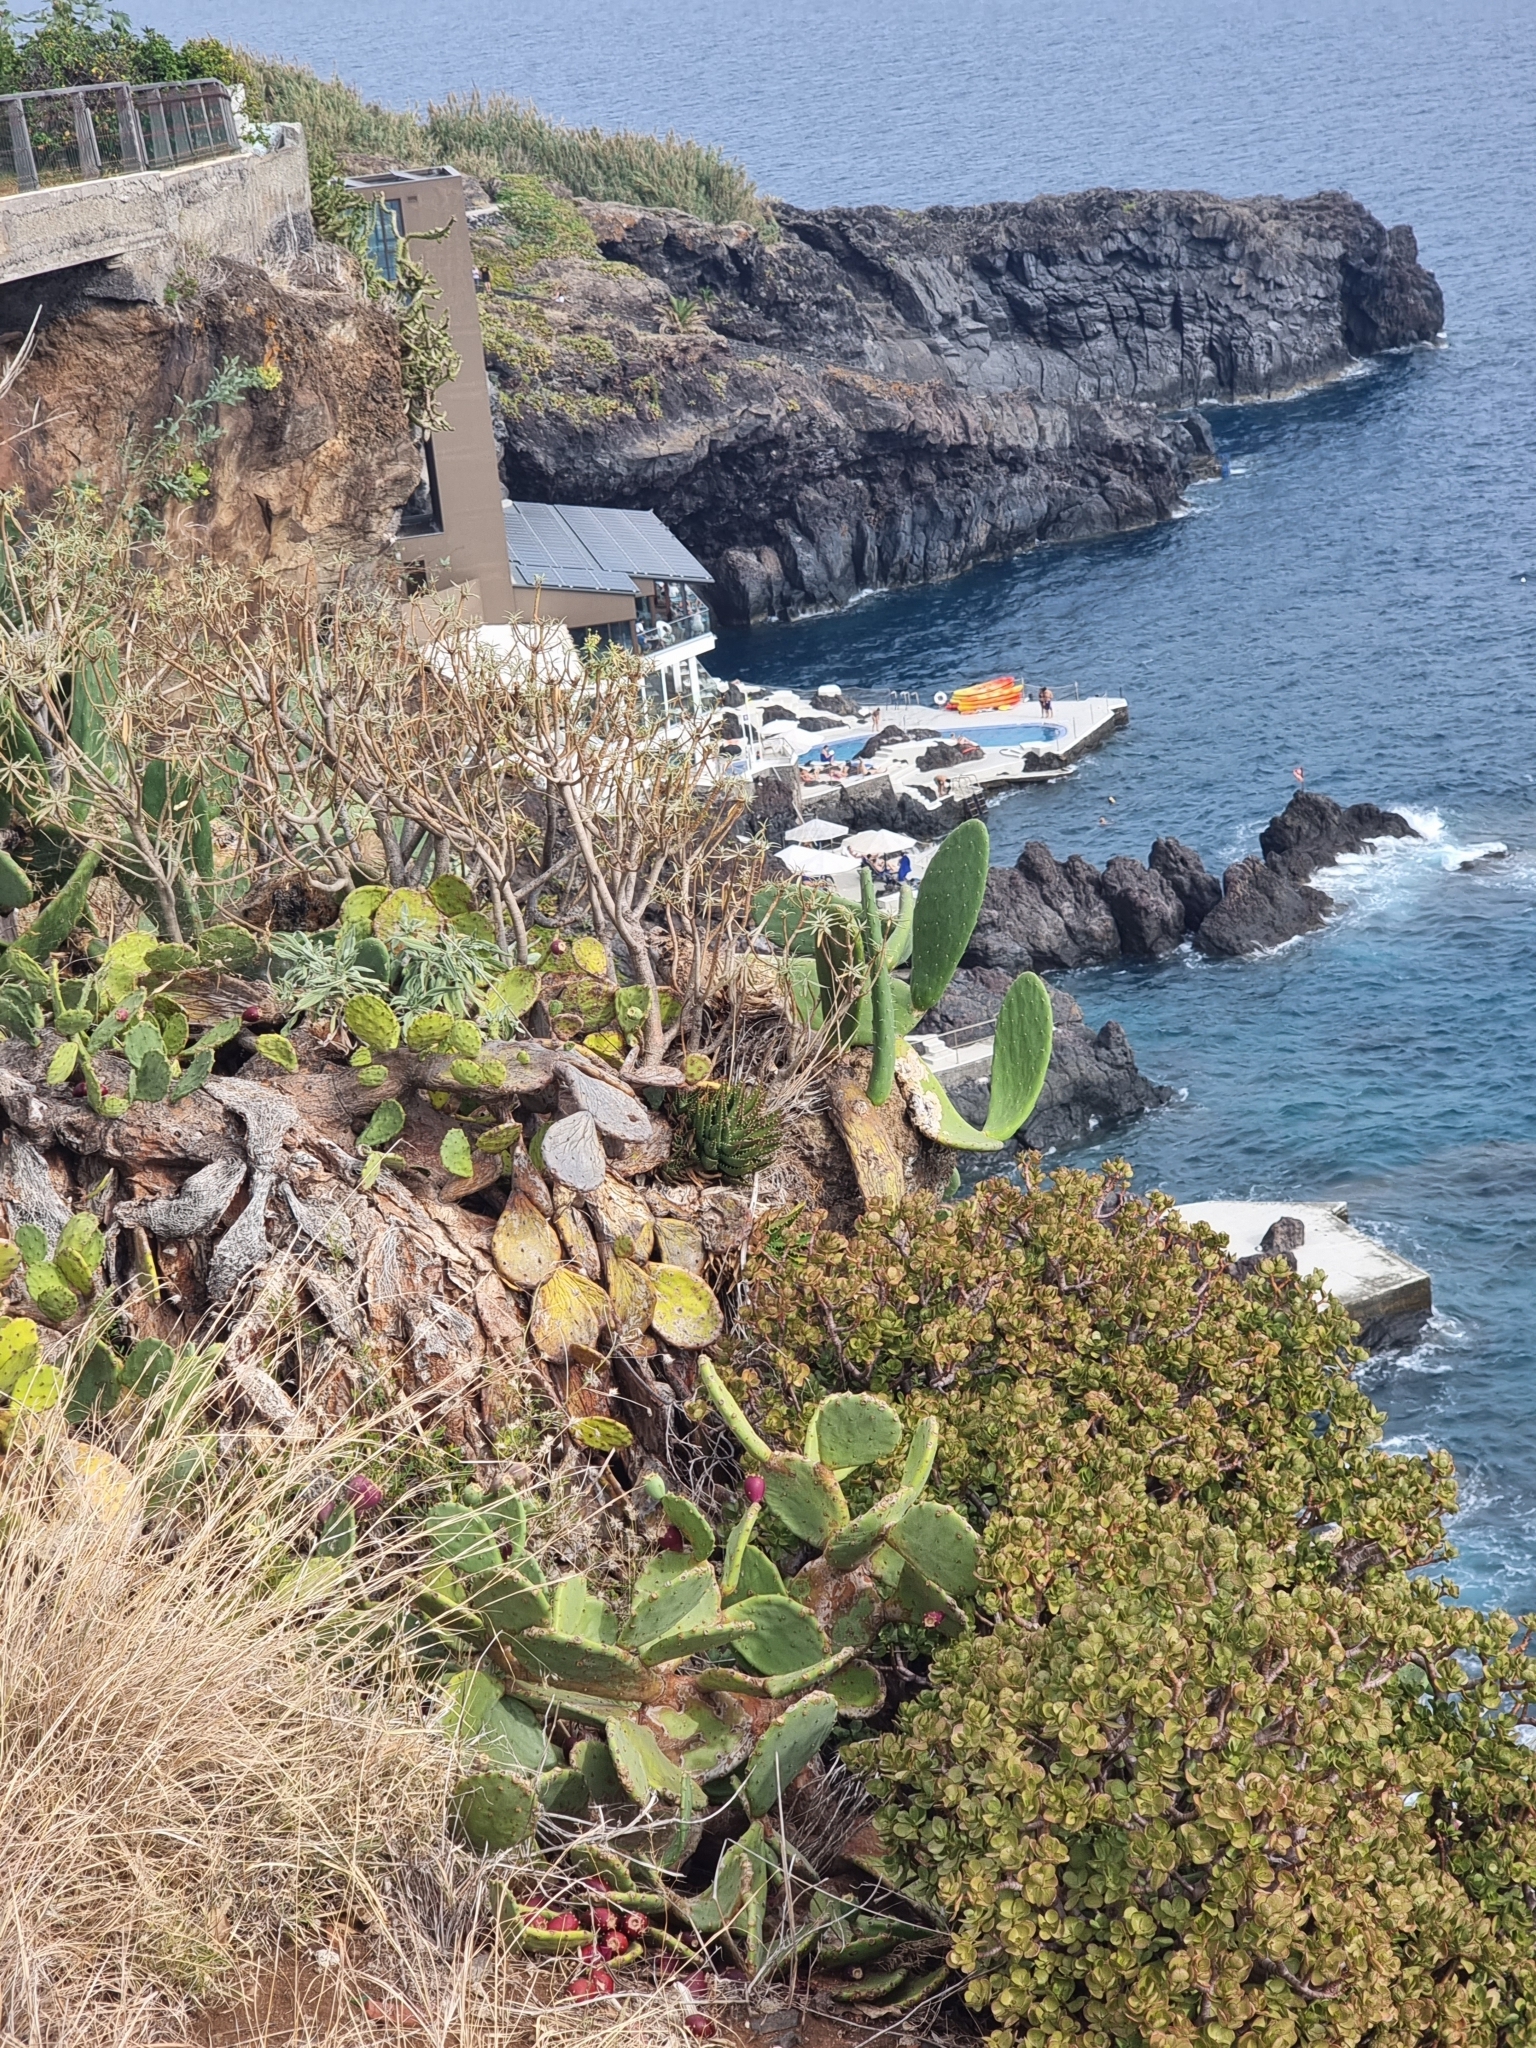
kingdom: Plantae
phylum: Tracheophyta
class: Magnoliopsida
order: Malpighiales
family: Euphorbiaceae
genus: Euphorbia
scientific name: Euphorbia piscatoria
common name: Fish-stunning spurge
